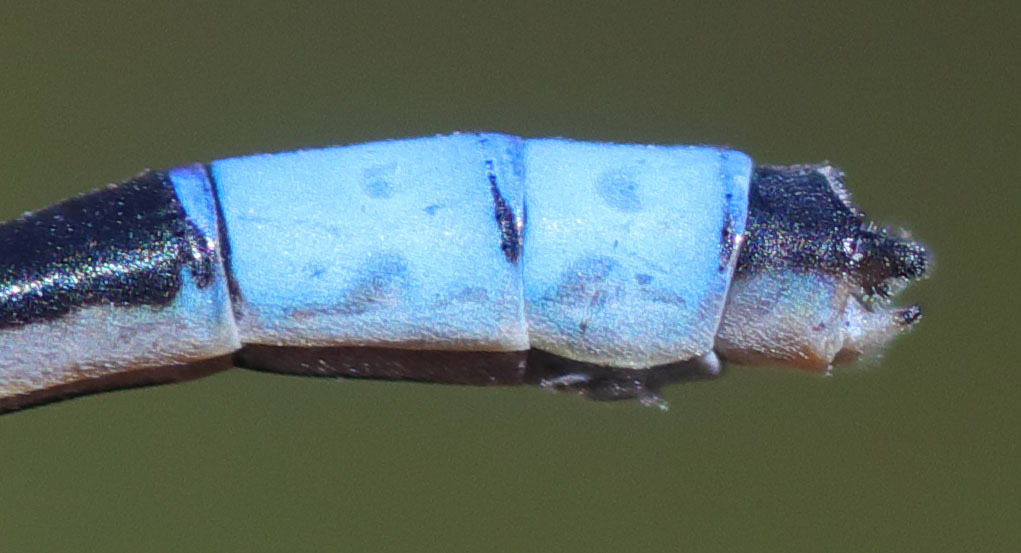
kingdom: Animalia
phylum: Arthropoda
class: Insecta
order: Odonata
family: Coenagrionidae
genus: Enallagma
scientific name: Enallagma praevarum
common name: Arroyo bluet
